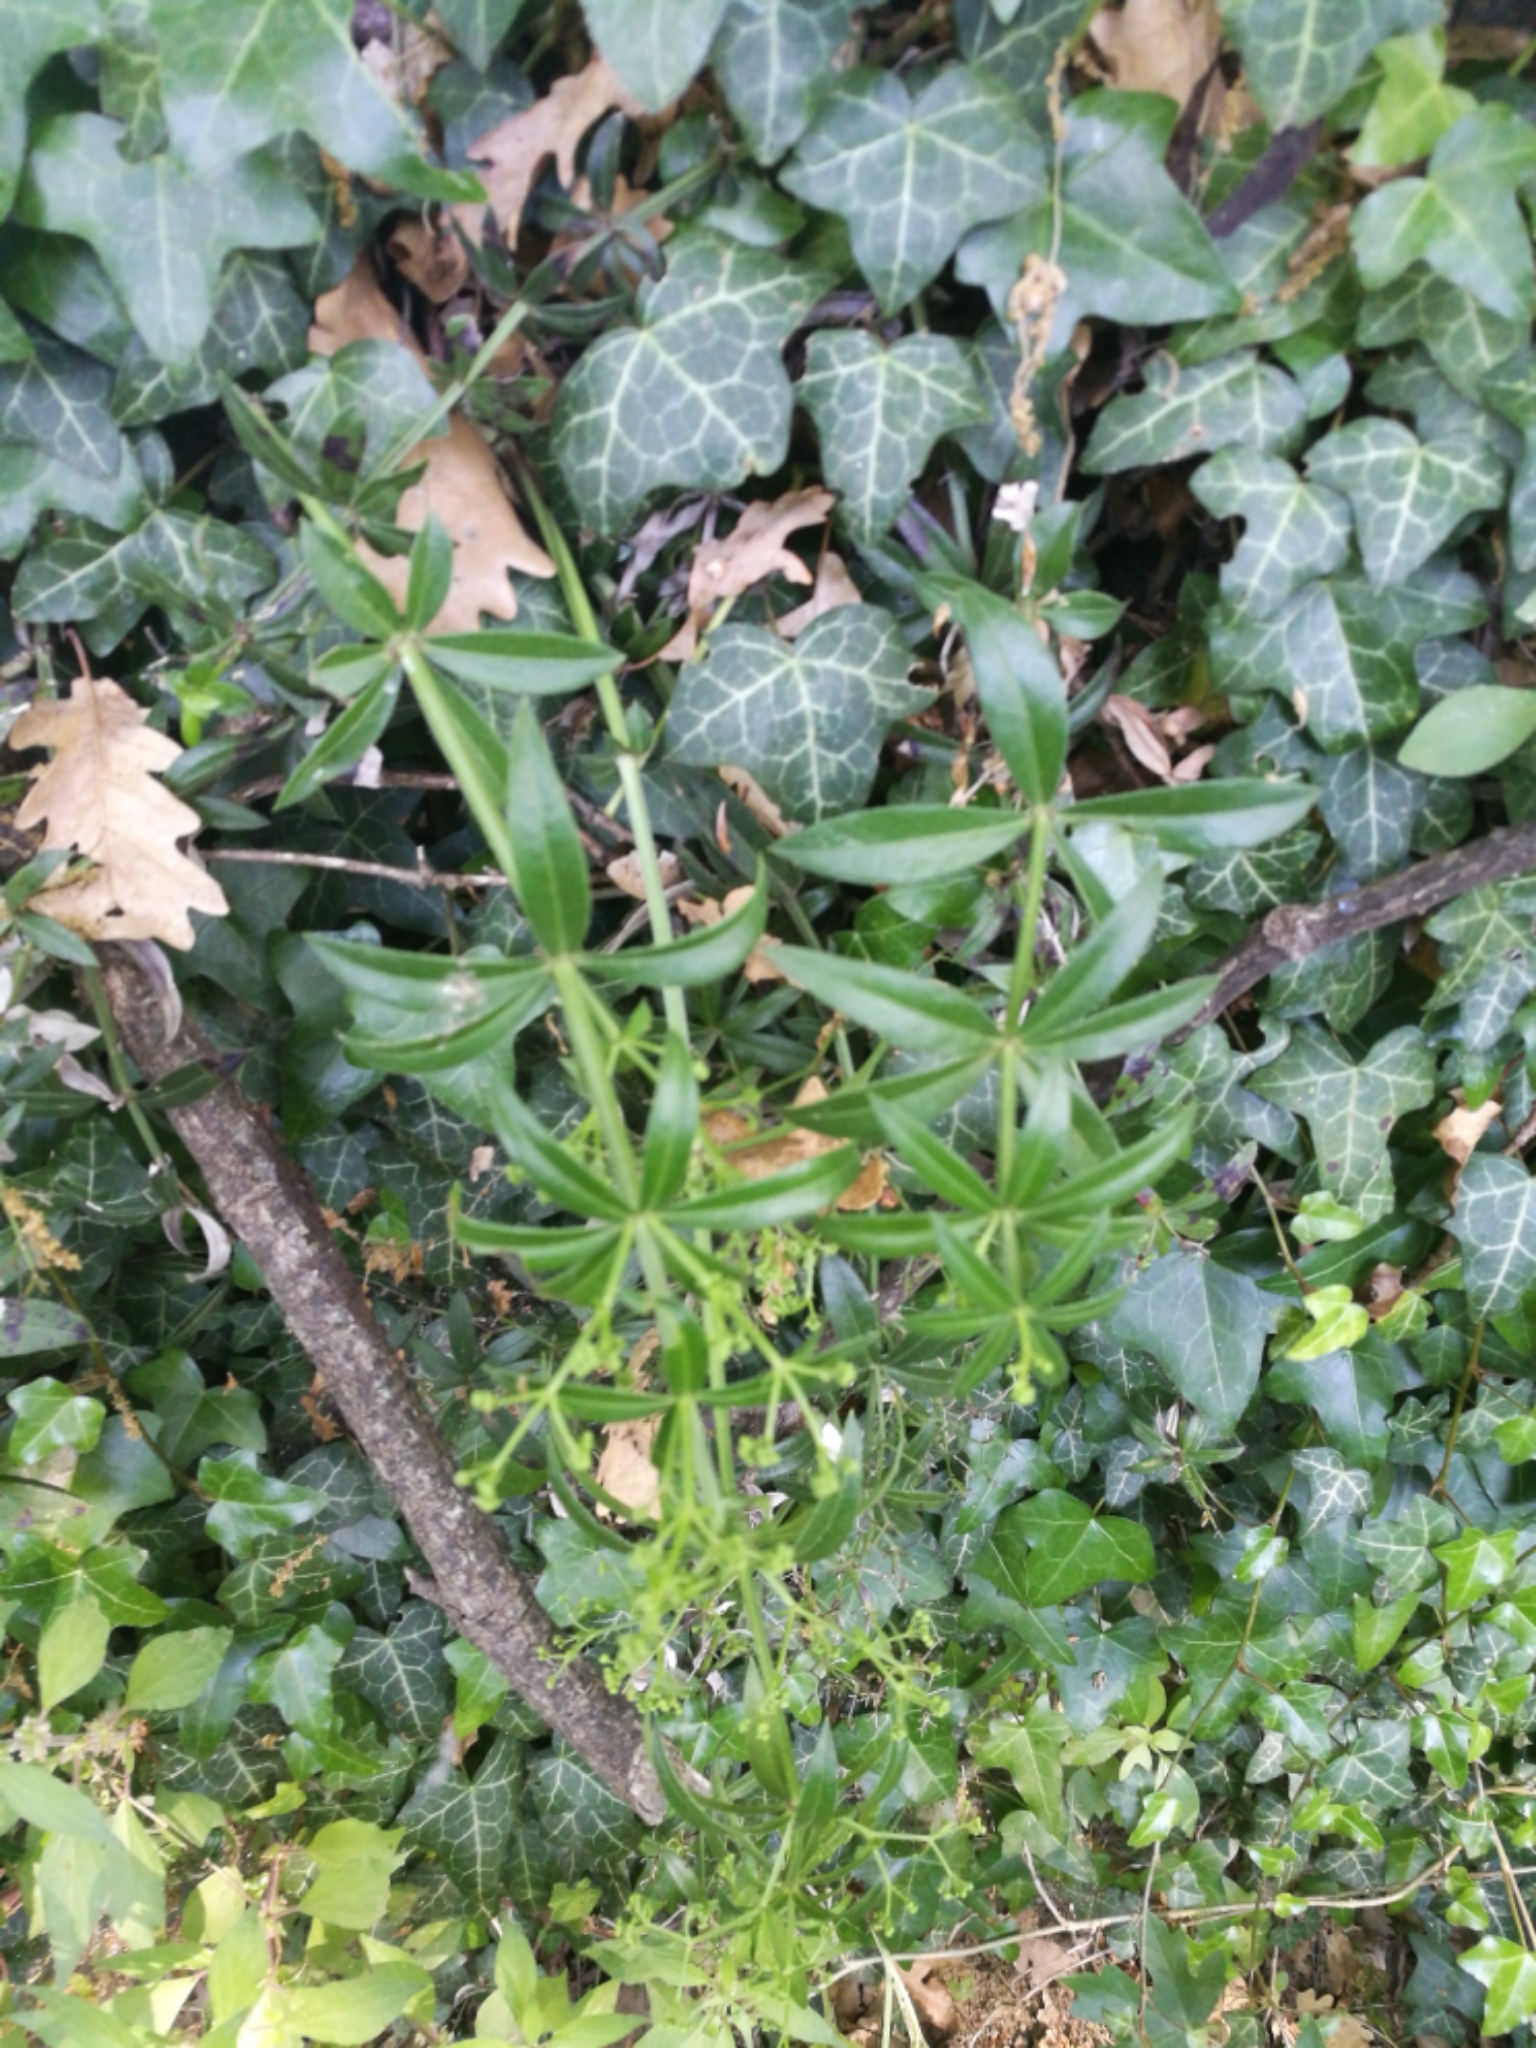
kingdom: Plantae
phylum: Tracheophyta
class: Magnoliopsida
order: Gentianales
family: Rubiaceae
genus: Rubia
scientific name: Rubia peregrina
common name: Wild madder
